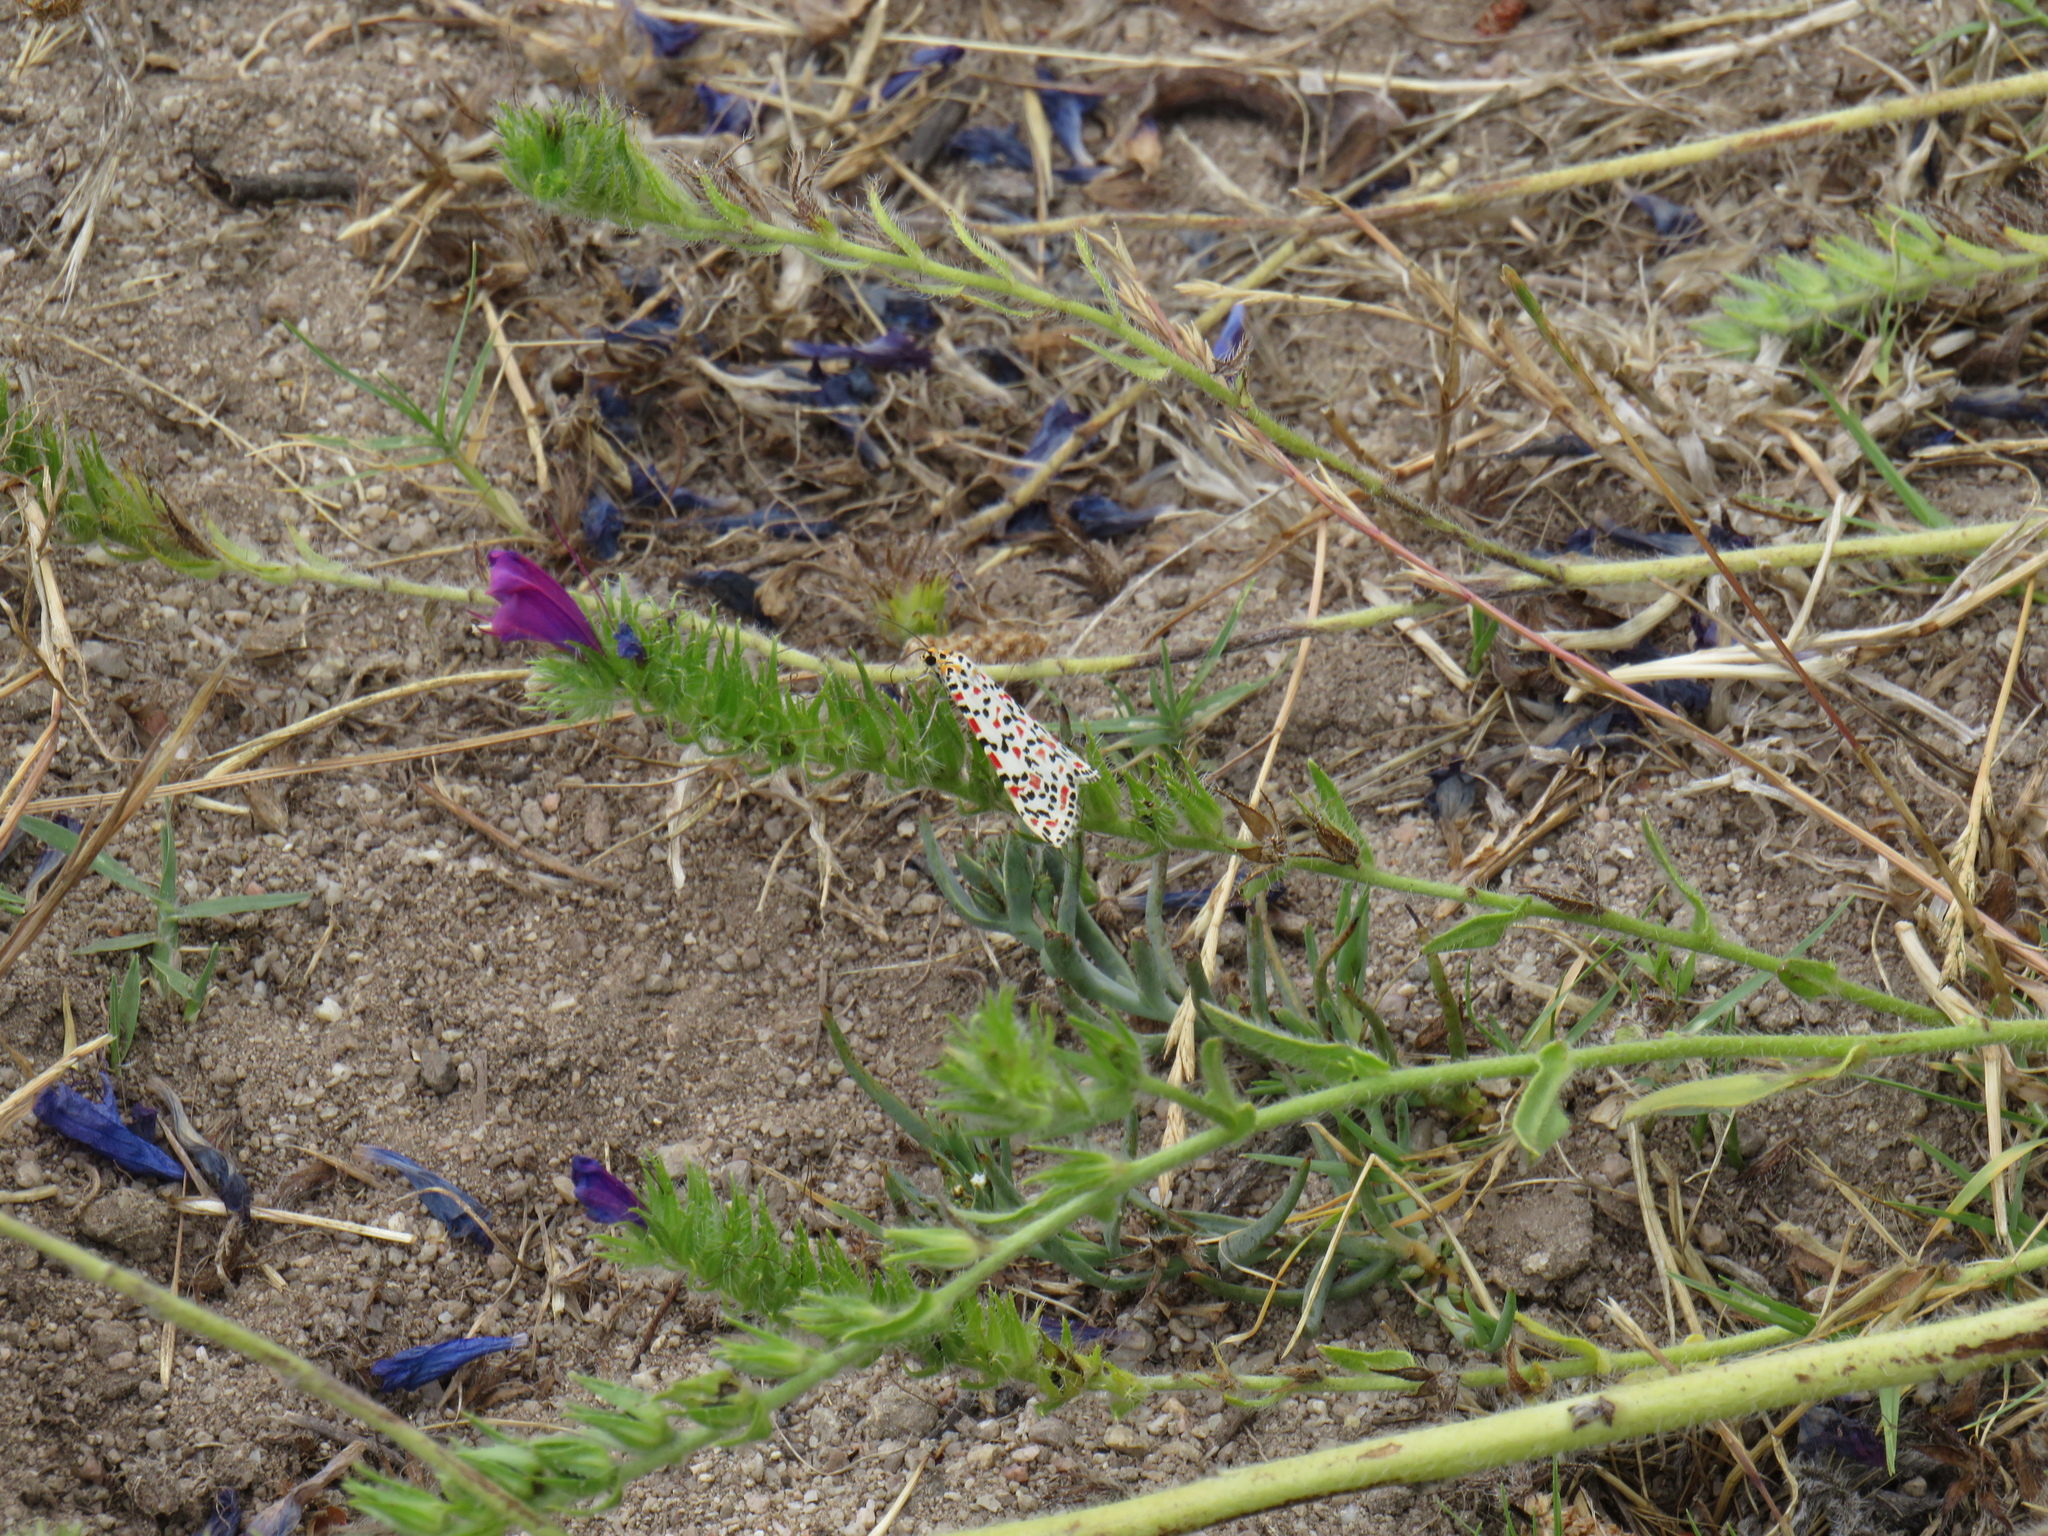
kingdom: Animalia
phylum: Arthropoda
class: Insecta
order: Lepidoptera
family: Erebidae
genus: Utetheisa
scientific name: Utetheisa pulchella
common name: Crimson speckled
